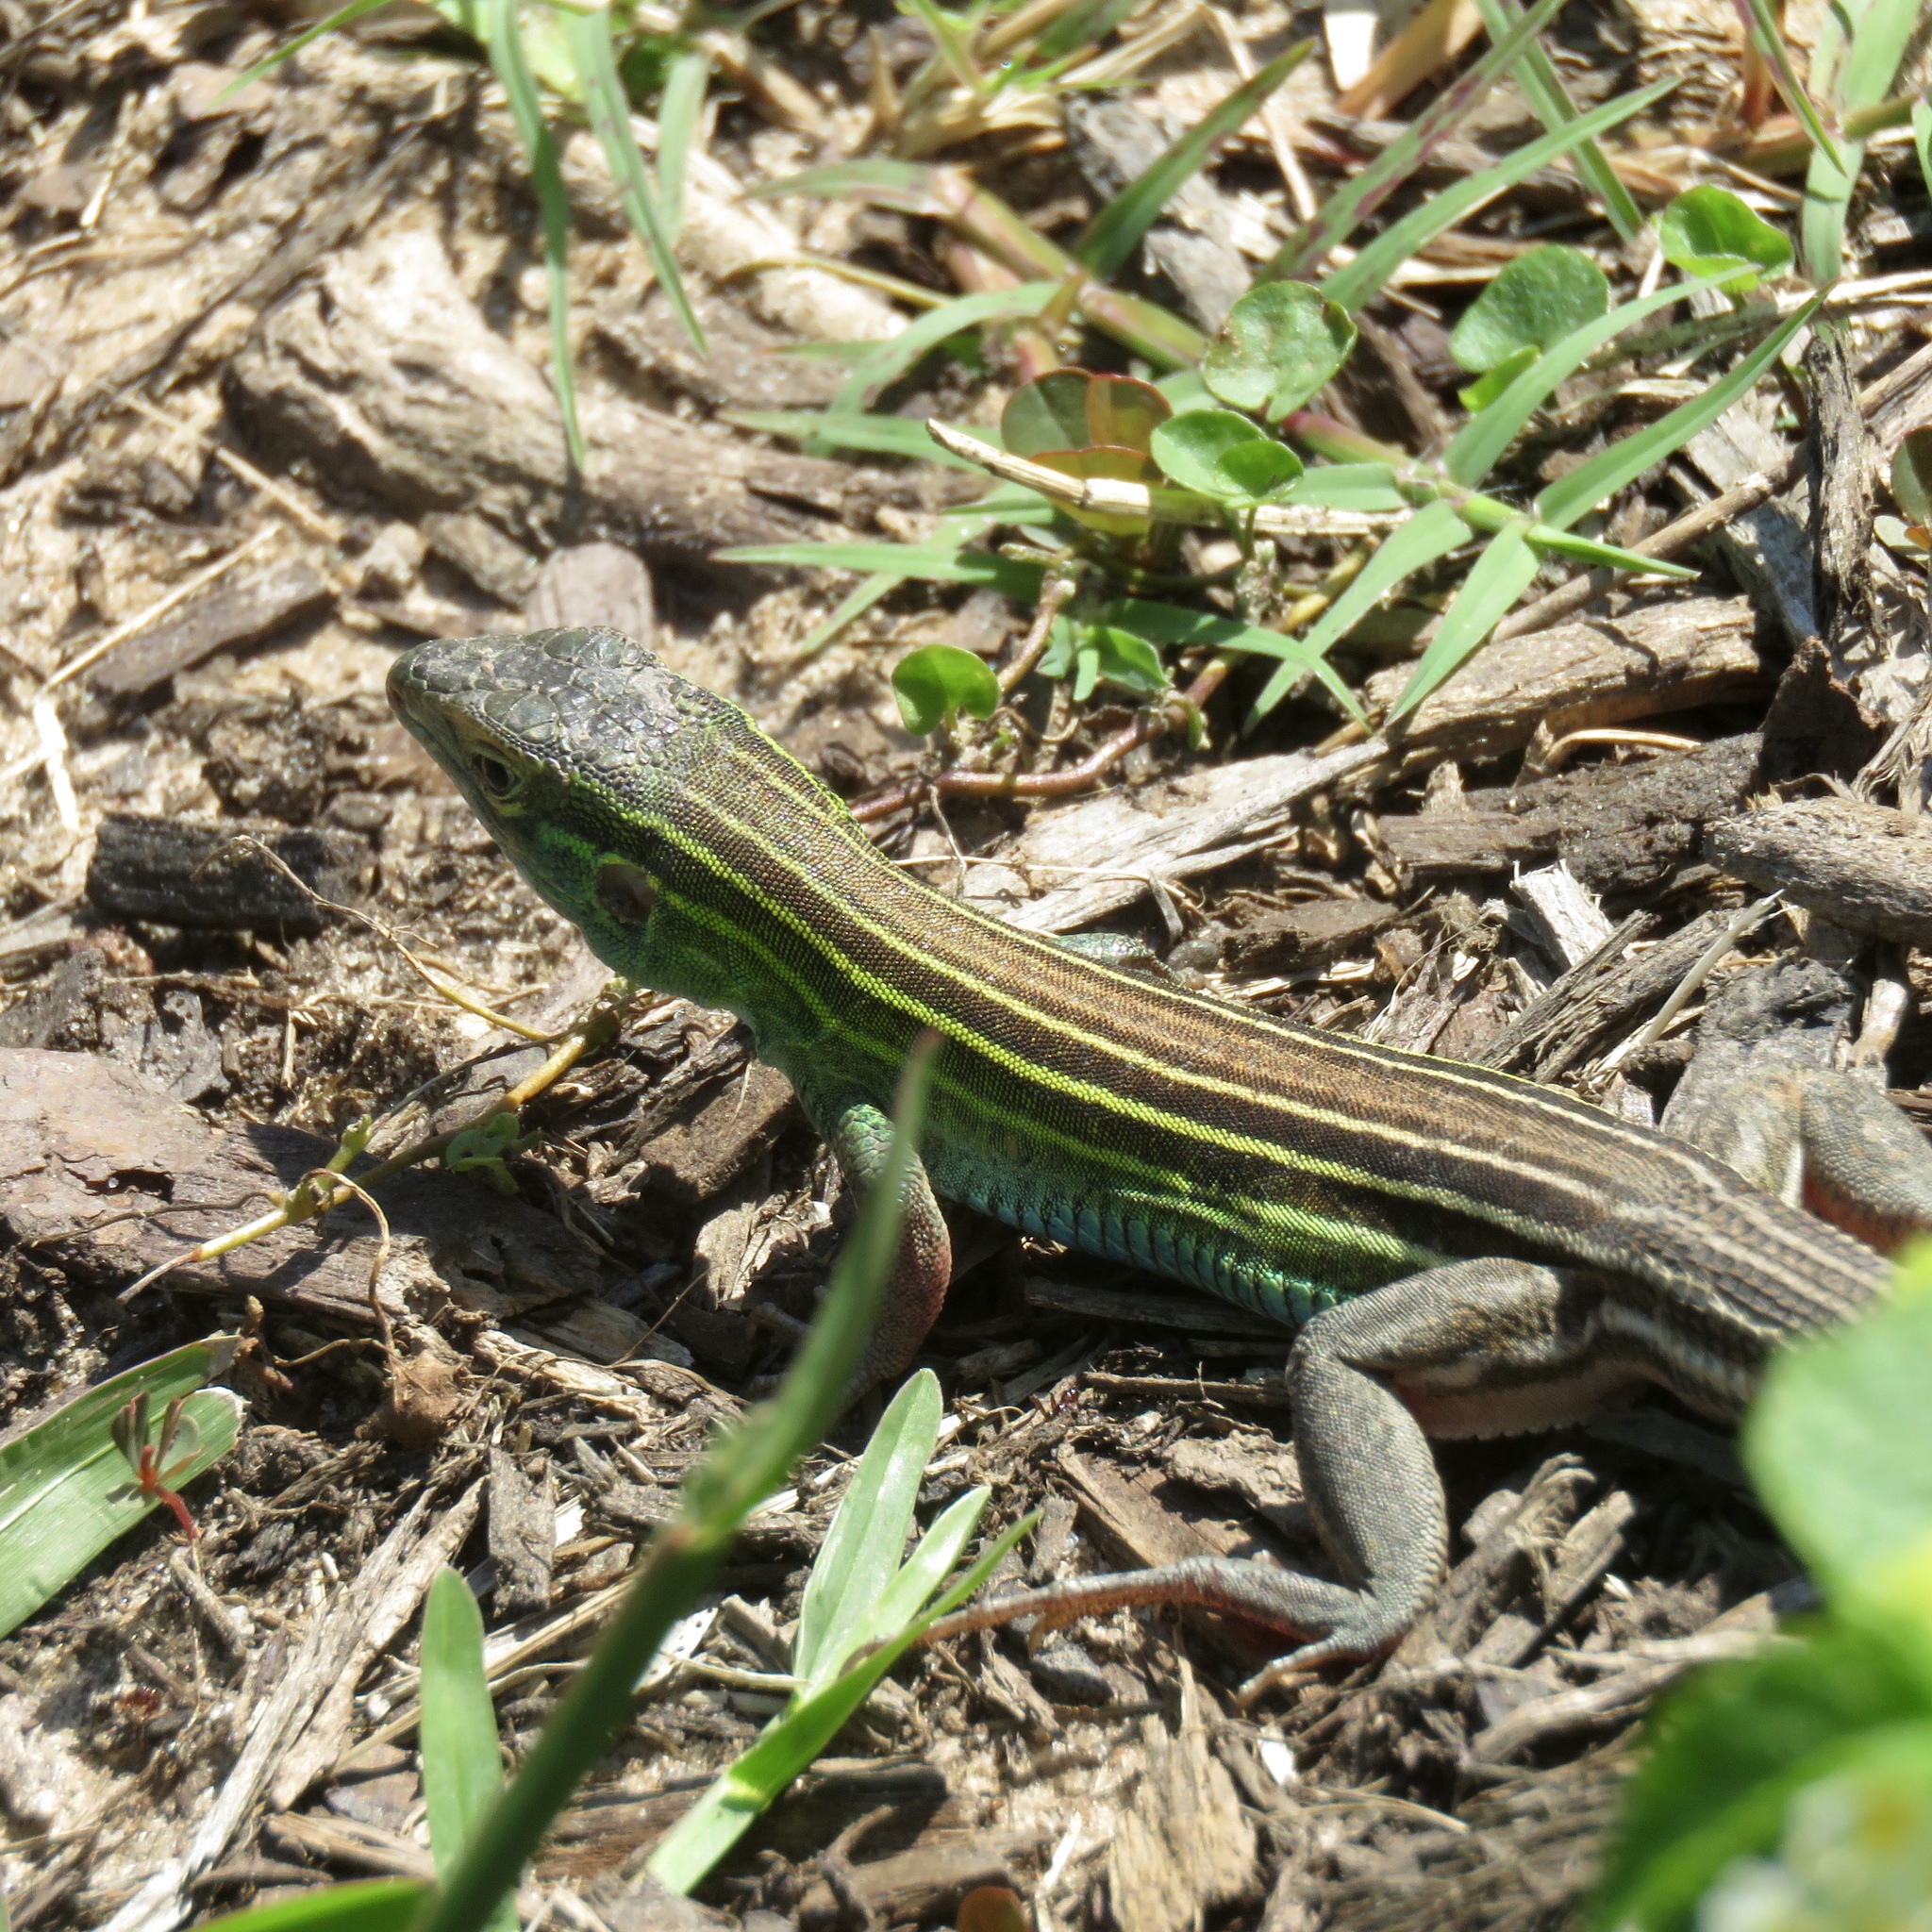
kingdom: Animalia
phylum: Chordata
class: Squamata
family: Teiidae
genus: Aspidoscelis
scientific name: Aspidoscelis sexlineatus
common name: Six-lined racerunner
